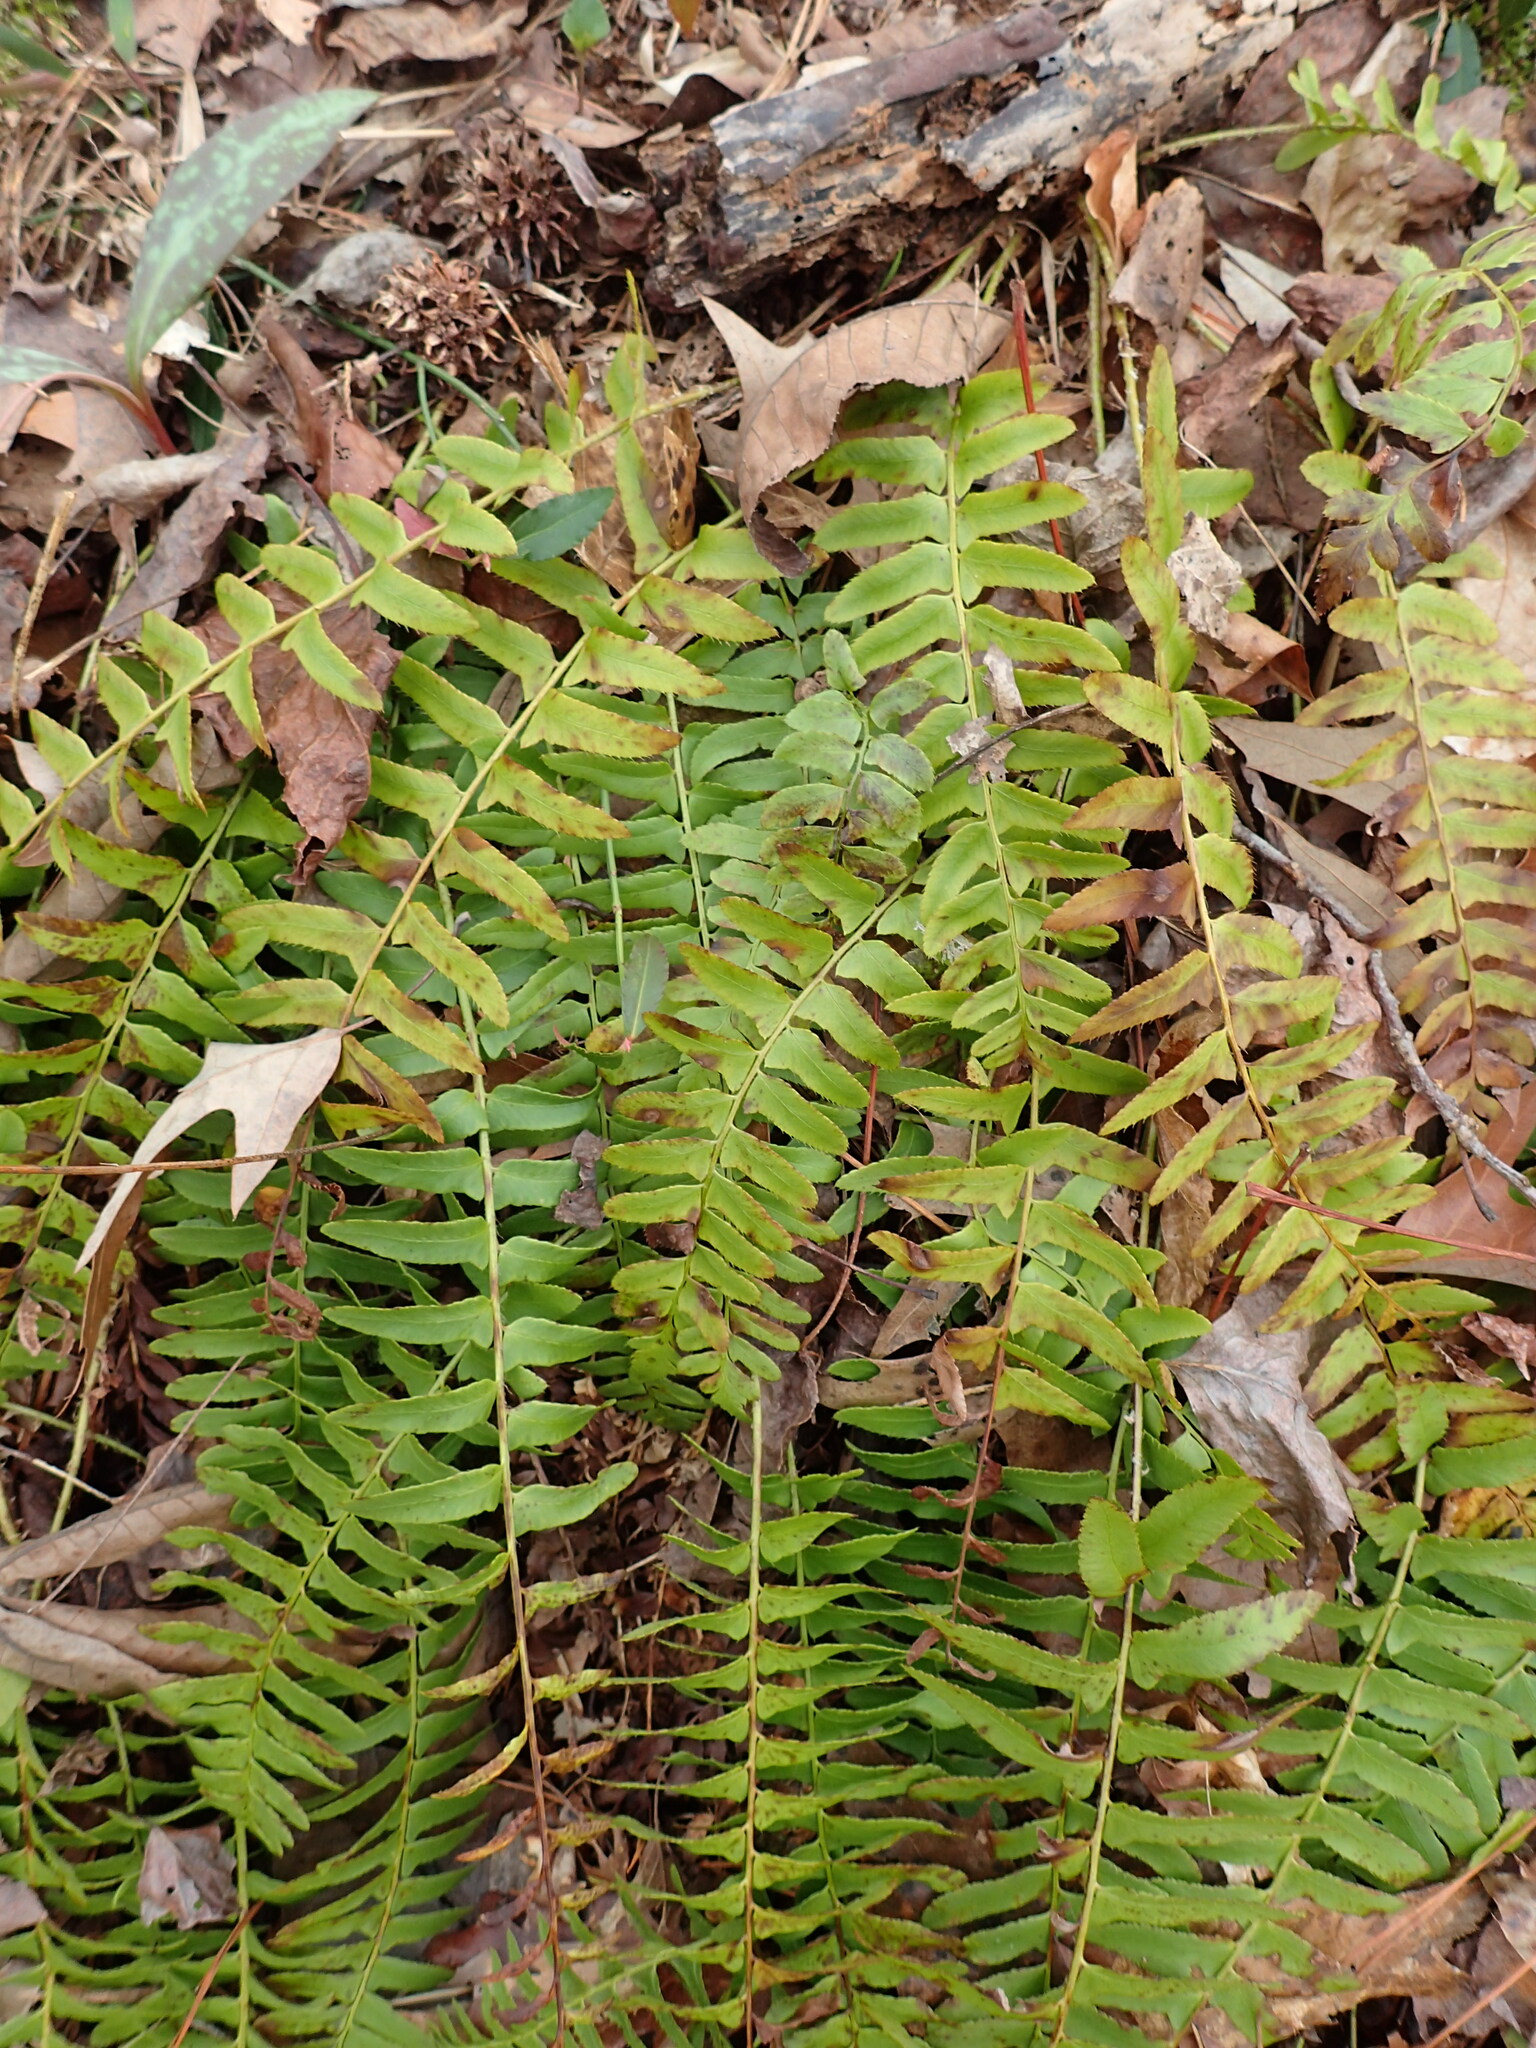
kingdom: Plantae
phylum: Tracheophyta
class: Polypodiopsida
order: Polypodiales
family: Dryopteridaceae
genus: Polystichum
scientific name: Polystichum acrostichoides
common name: Christmas fern
